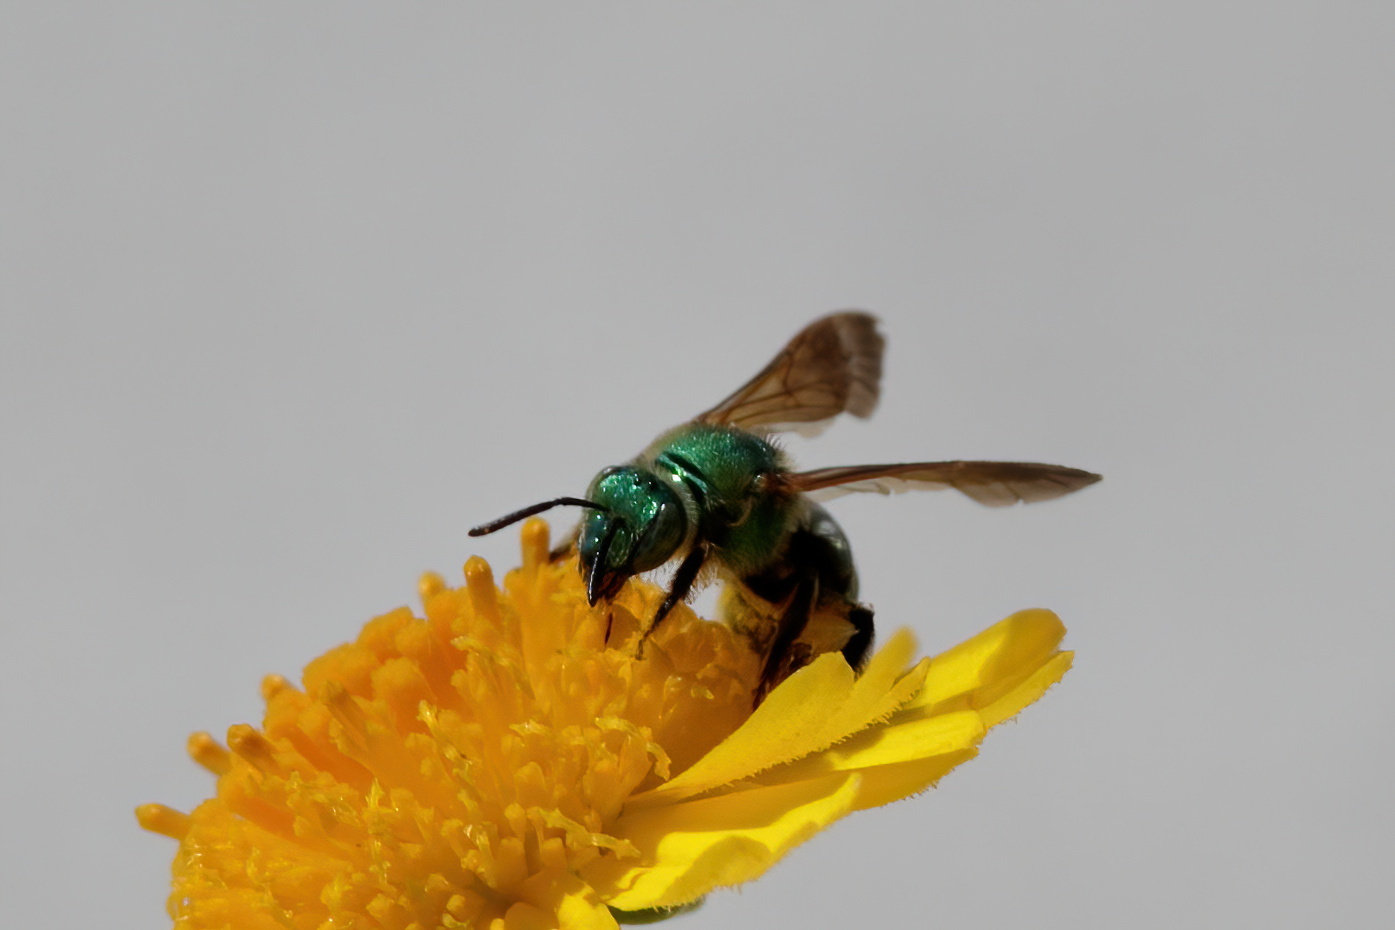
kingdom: Animalia
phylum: Arthropoda
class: Insecta
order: Hymenoptera
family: Halictidae
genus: Agapostemon
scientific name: Agapostemon splendens
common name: Brown-winged striped sweat bee
